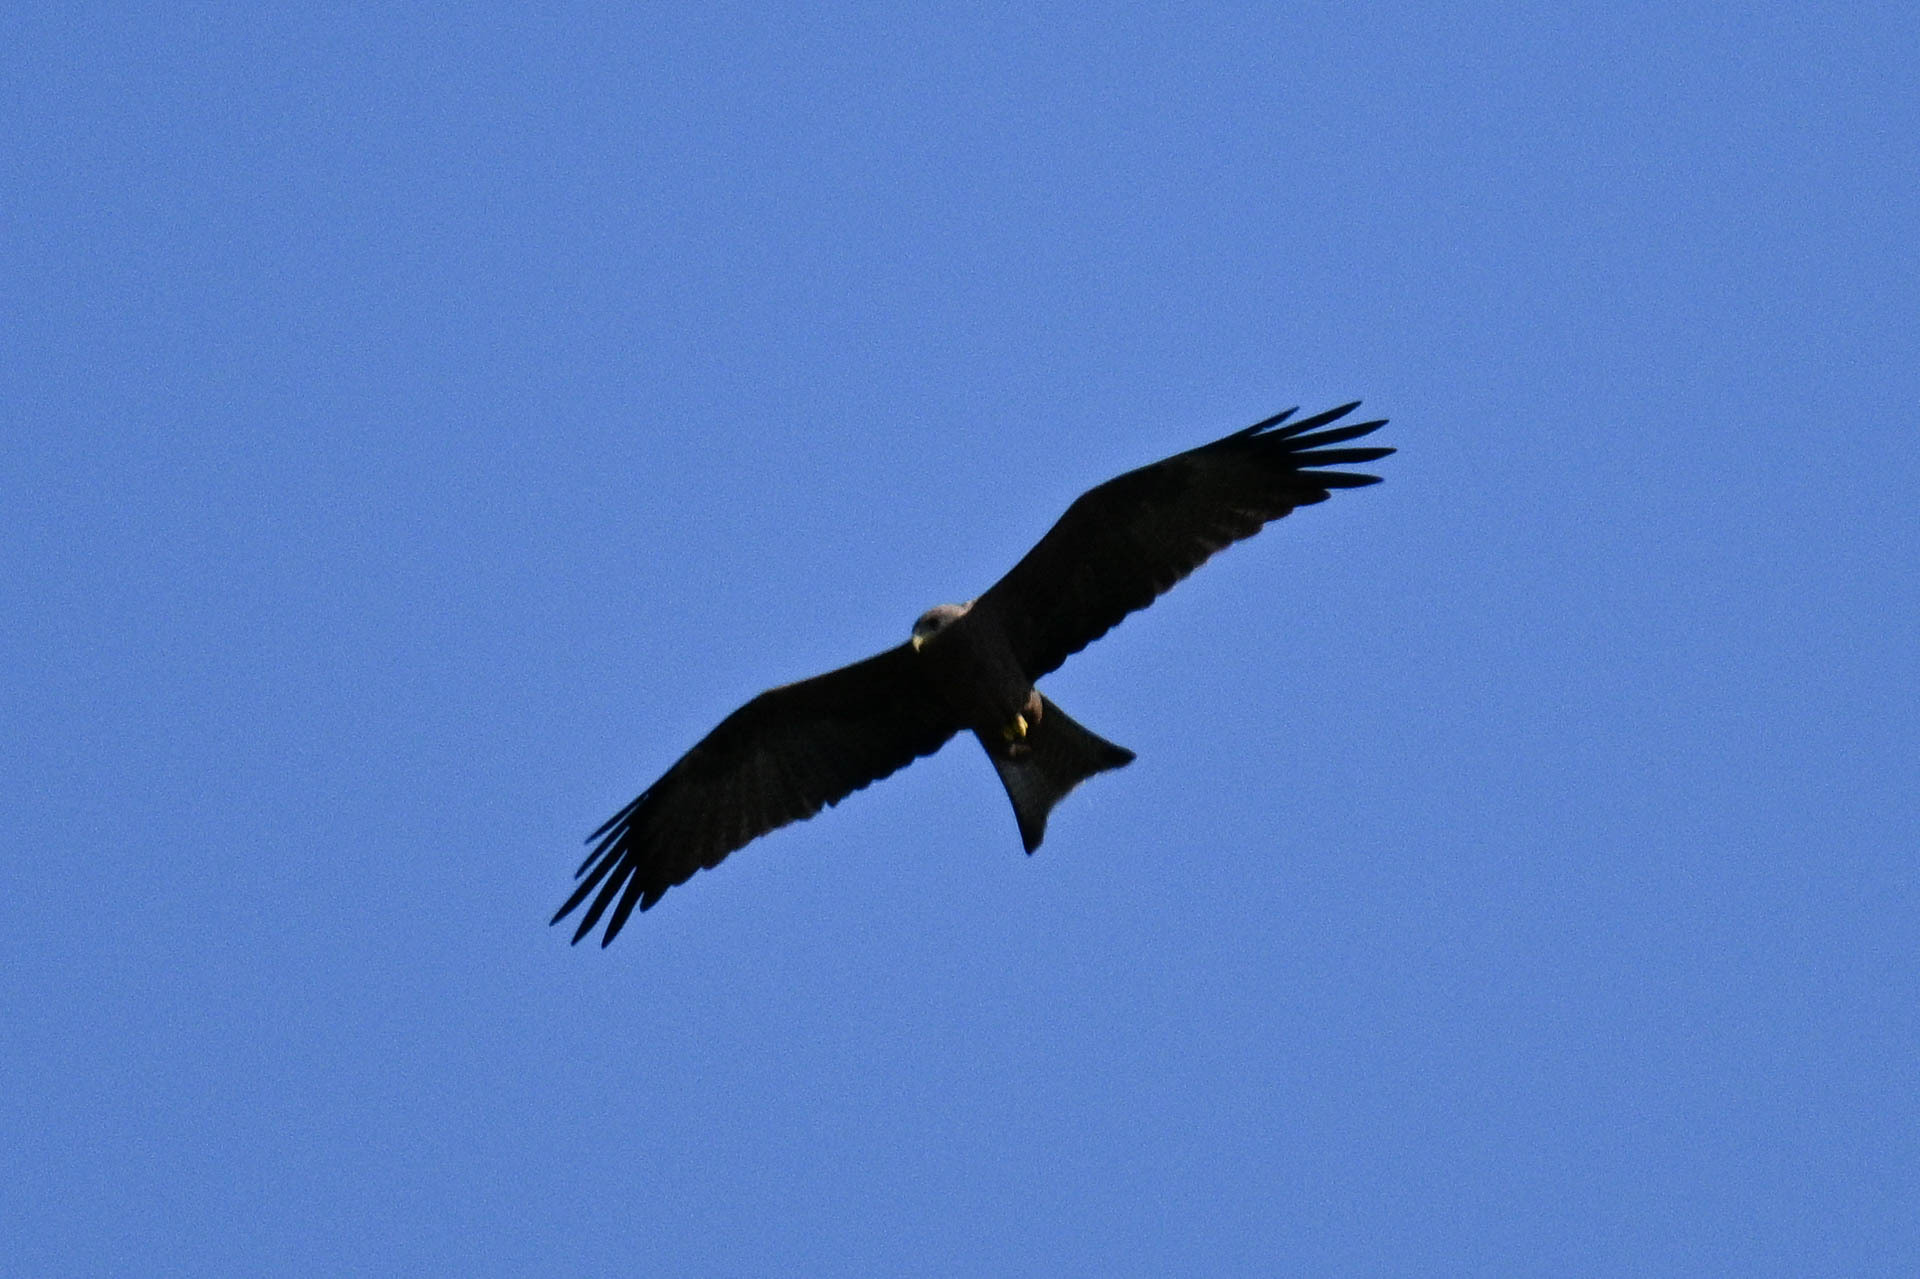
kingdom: Animalia
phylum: Chordata
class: Aves
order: Accipitriformes
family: Accipitridae
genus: Milvus
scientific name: Milvus migrans
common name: Black kite
